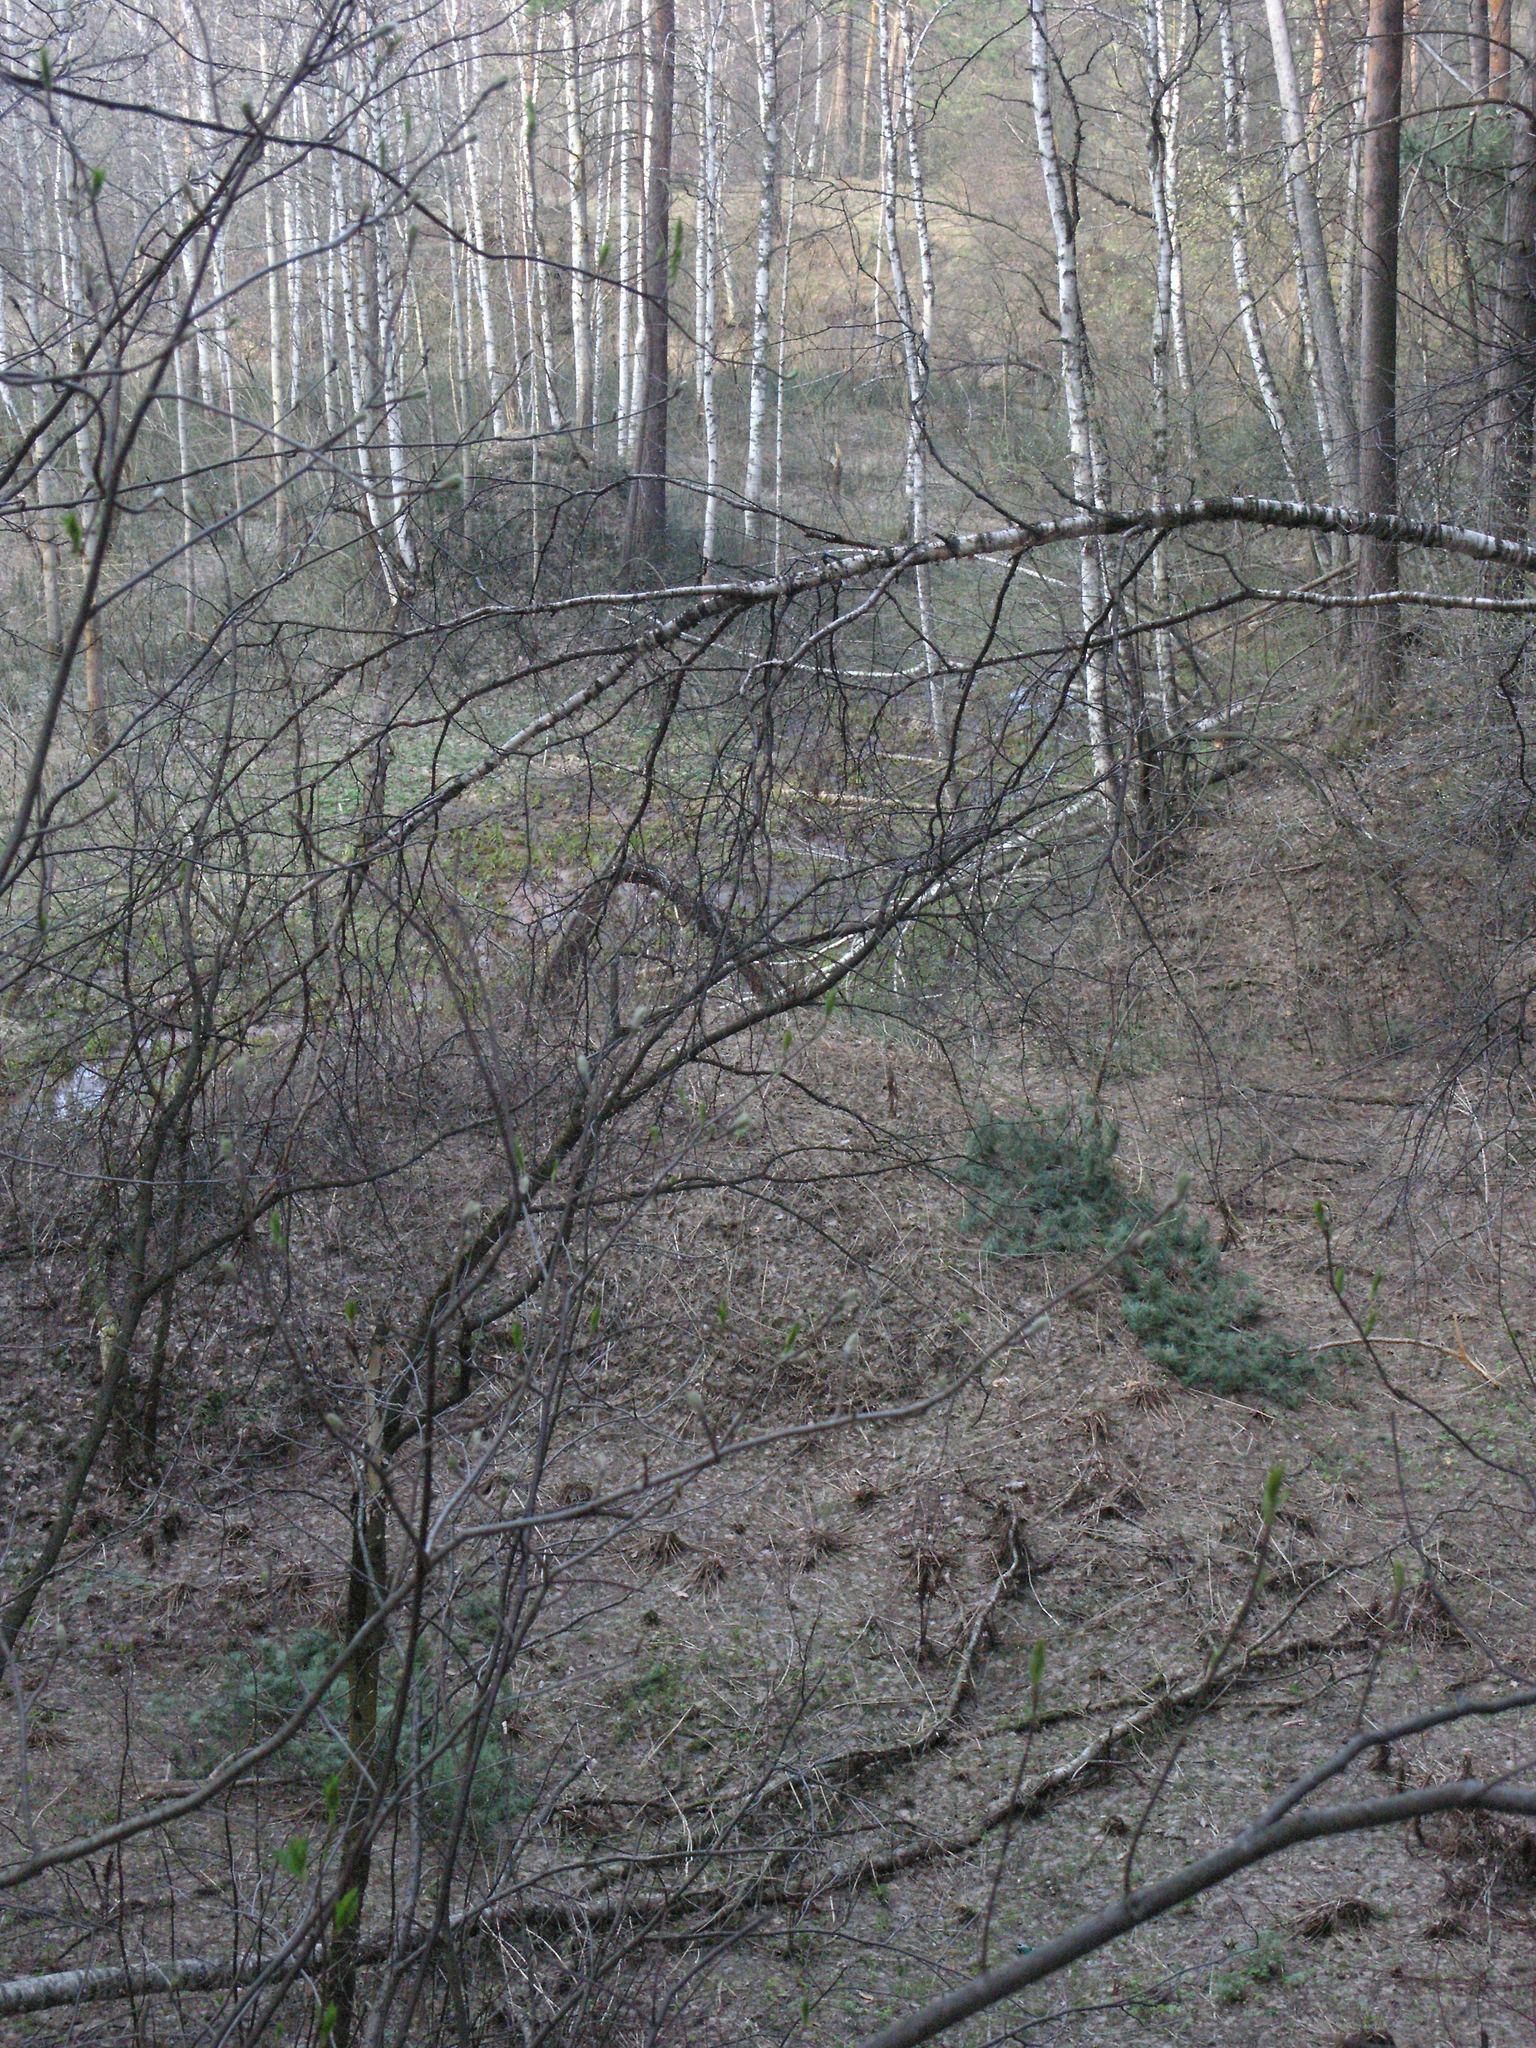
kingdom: Plantae
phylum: Tracheophyta
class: Magnoliopsida
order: Rosales
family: Rosaceae
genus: Prunus
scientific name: Prunus padus
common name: Bird cherry
